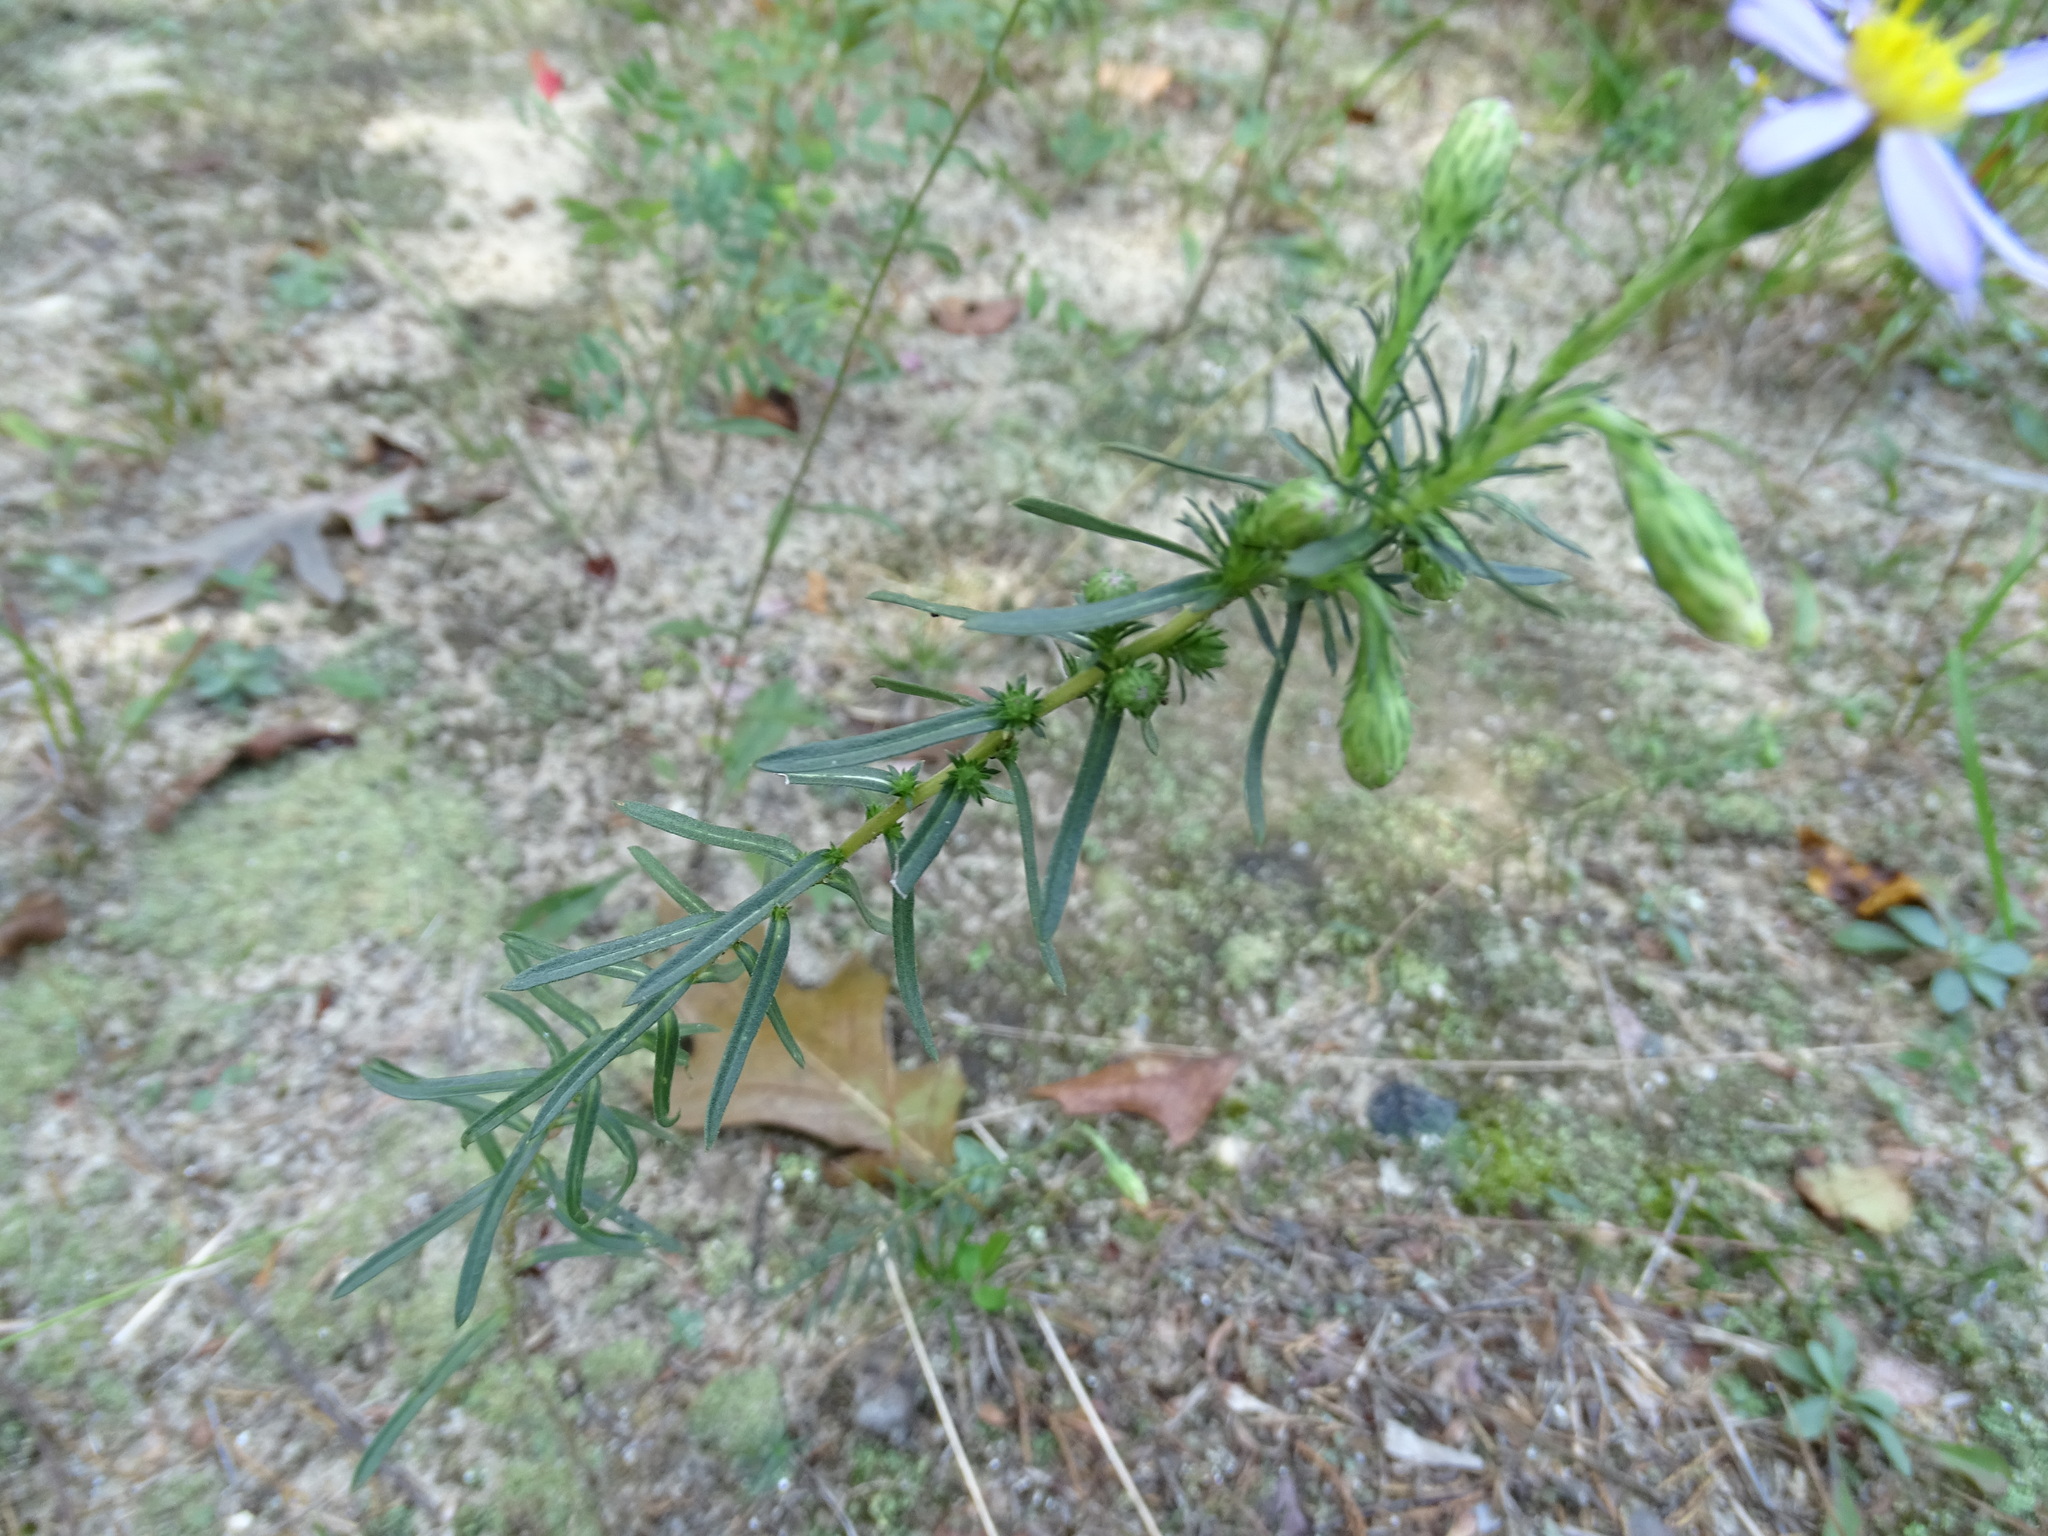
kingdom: Plantae
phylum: Tracheophyta
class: Magnoliopsida
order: Asterales
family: Asteraceae
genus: Ionactis
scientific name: Ionactis linariifolia
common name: Flax-leaf aster
